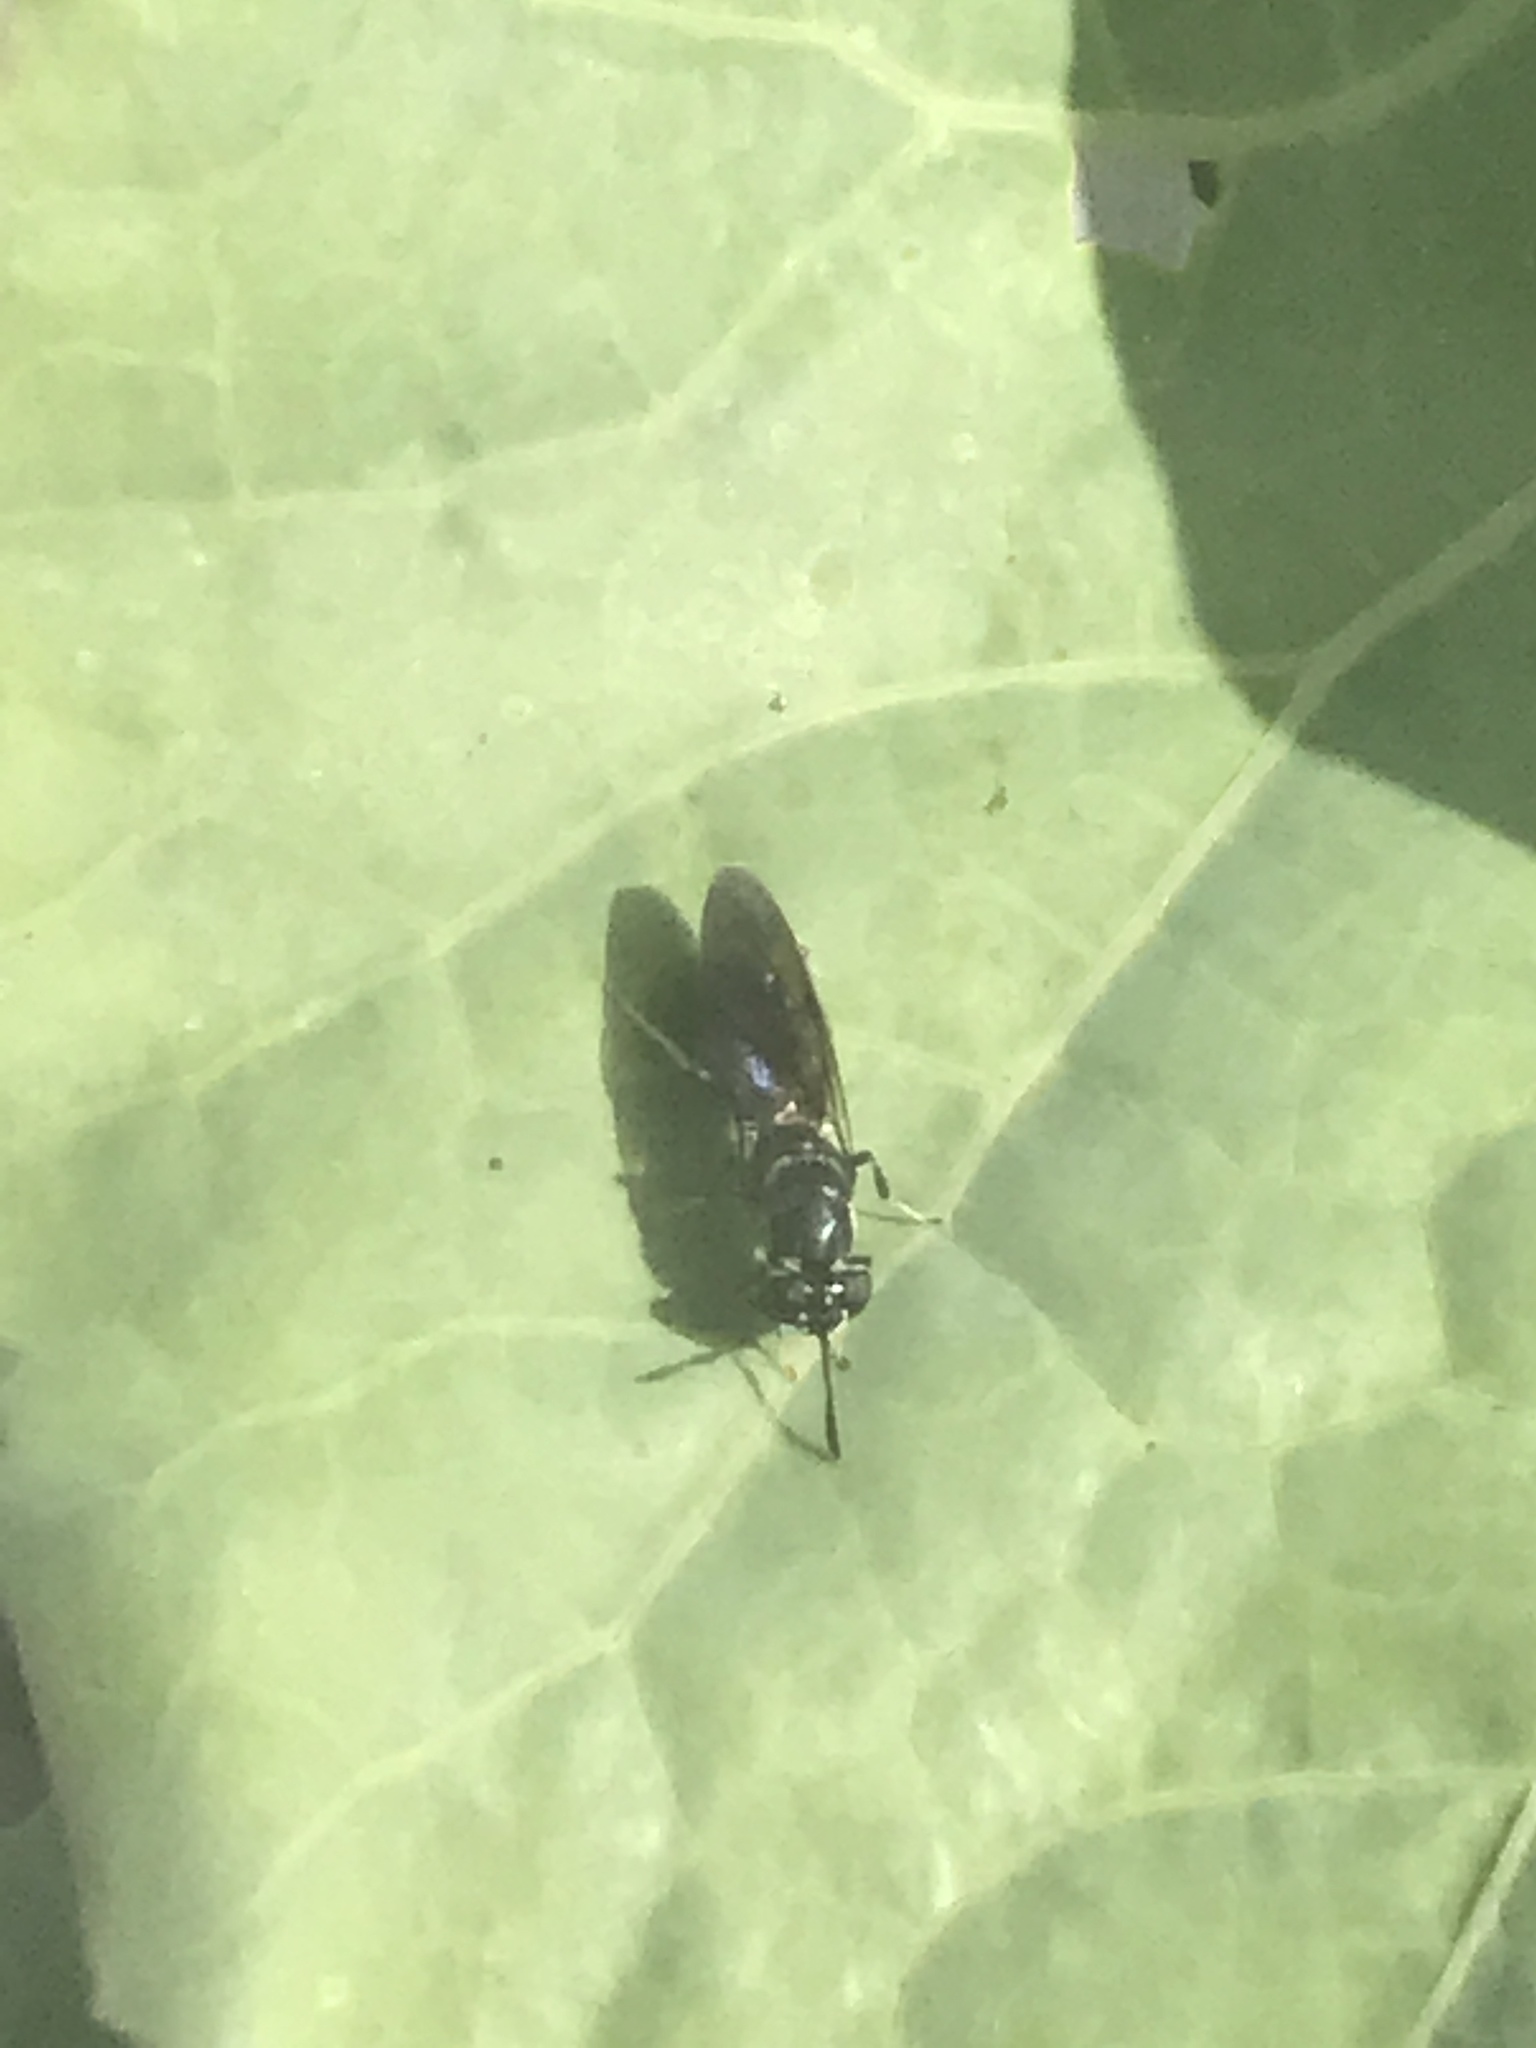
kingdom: Animalia
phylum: Arthropoda
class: Insecta
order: Diptera
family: Stratiomyidae
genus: Hermetia
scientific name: Hermetia illucens
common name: Black soldier fly
